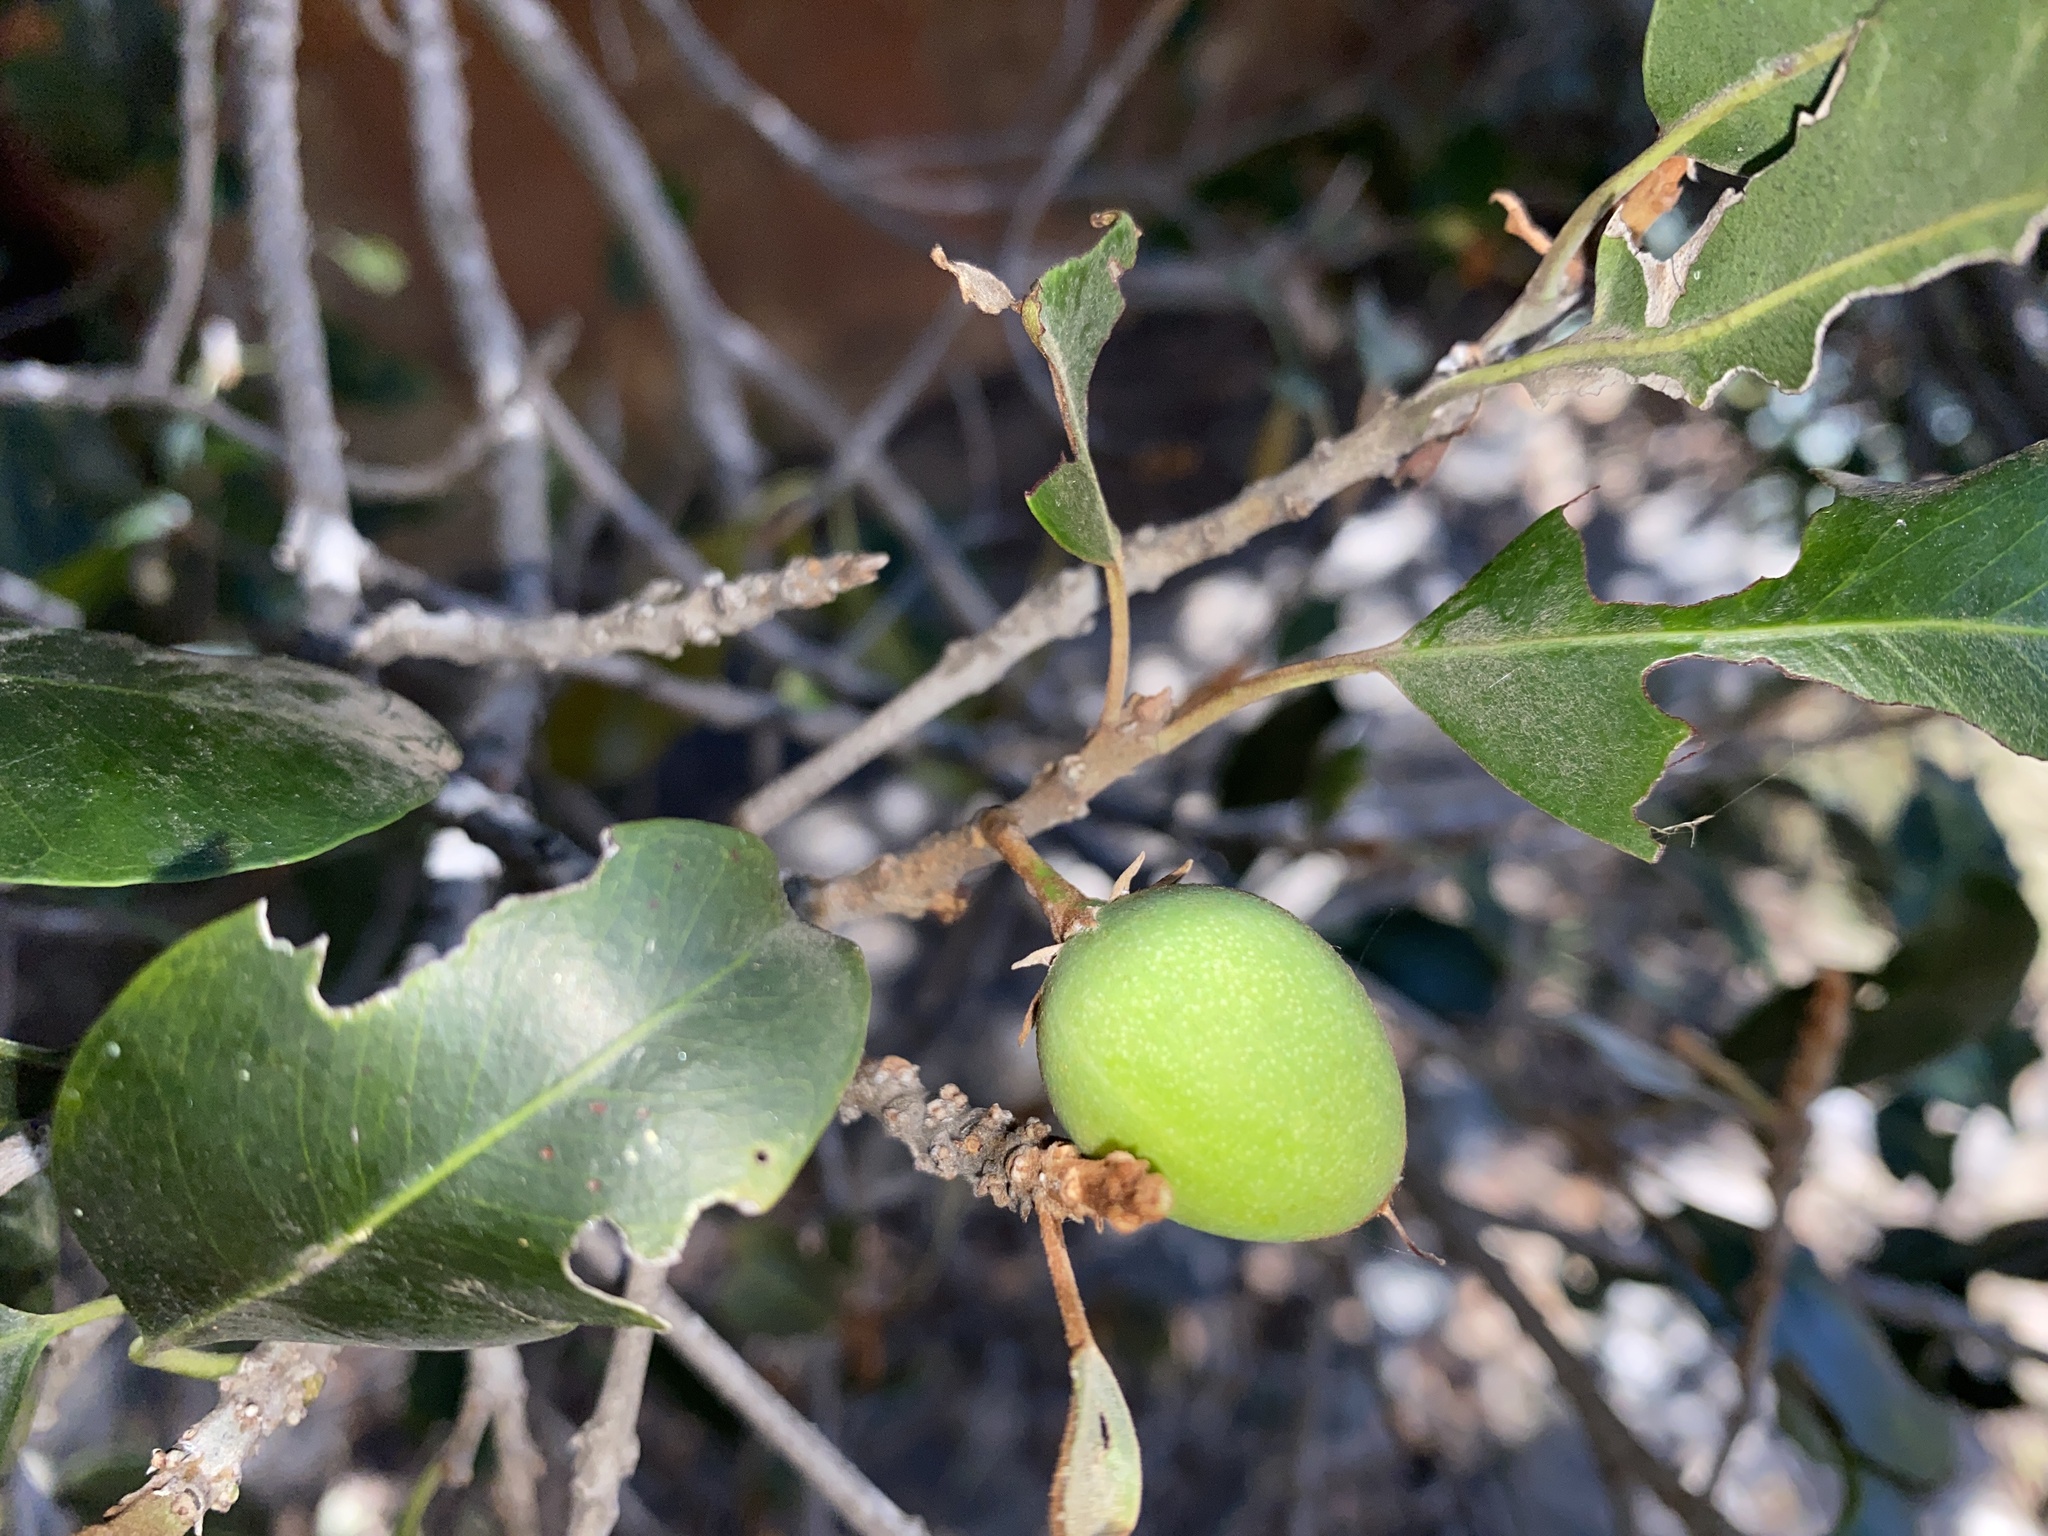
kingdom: Plantae
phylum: Tracheophyta
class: Magnoliopsida
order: Ericales
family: Sapotaceae
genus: Mimusops
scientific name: Mimusops zeyheri
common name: Transvaal red milkwood
